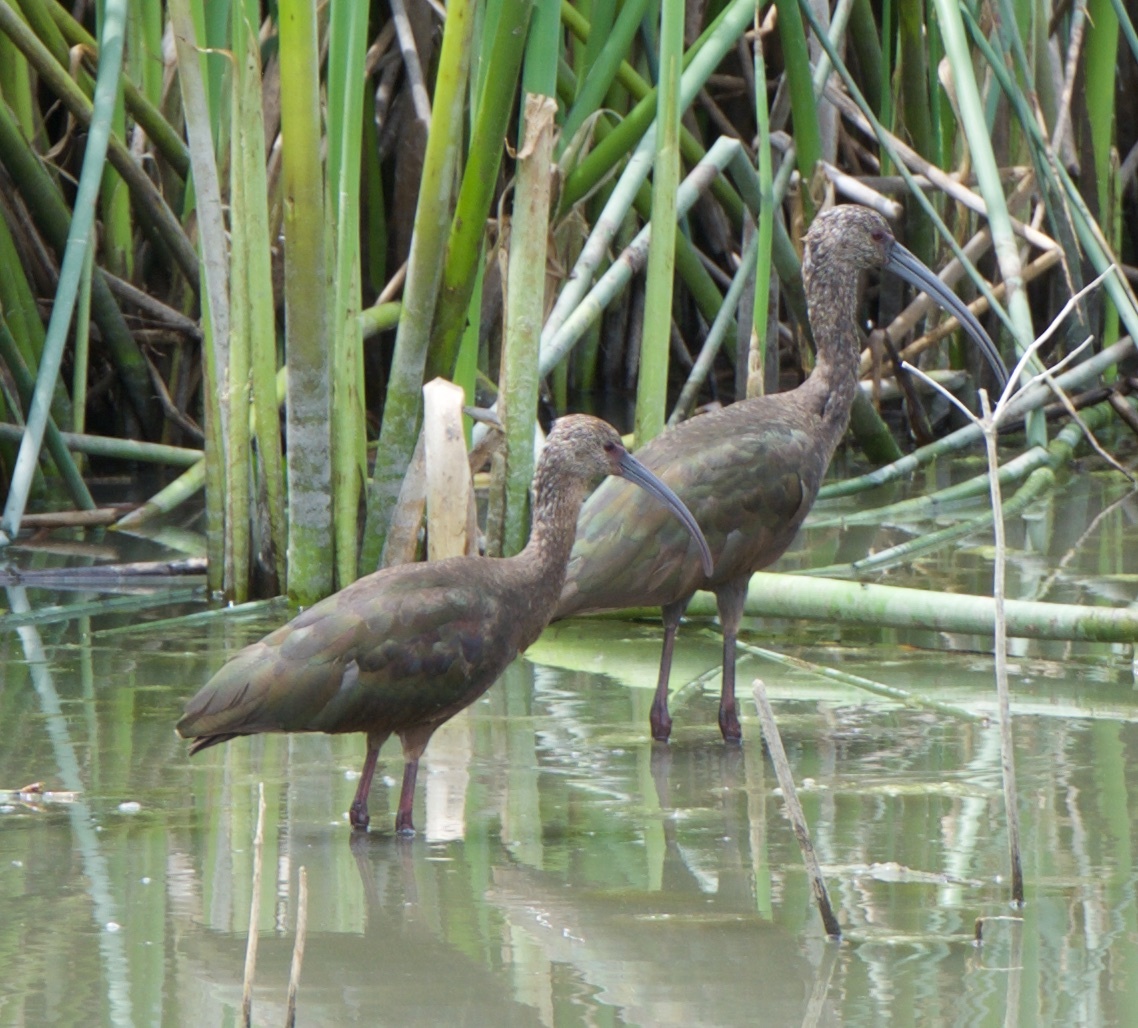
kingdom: Animalia
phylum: Chordata
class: Aves
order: Pelecaniformes
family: Threskiornithidae
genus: Plegadis
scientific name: Plegadis chihi
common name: White-faced ibis
